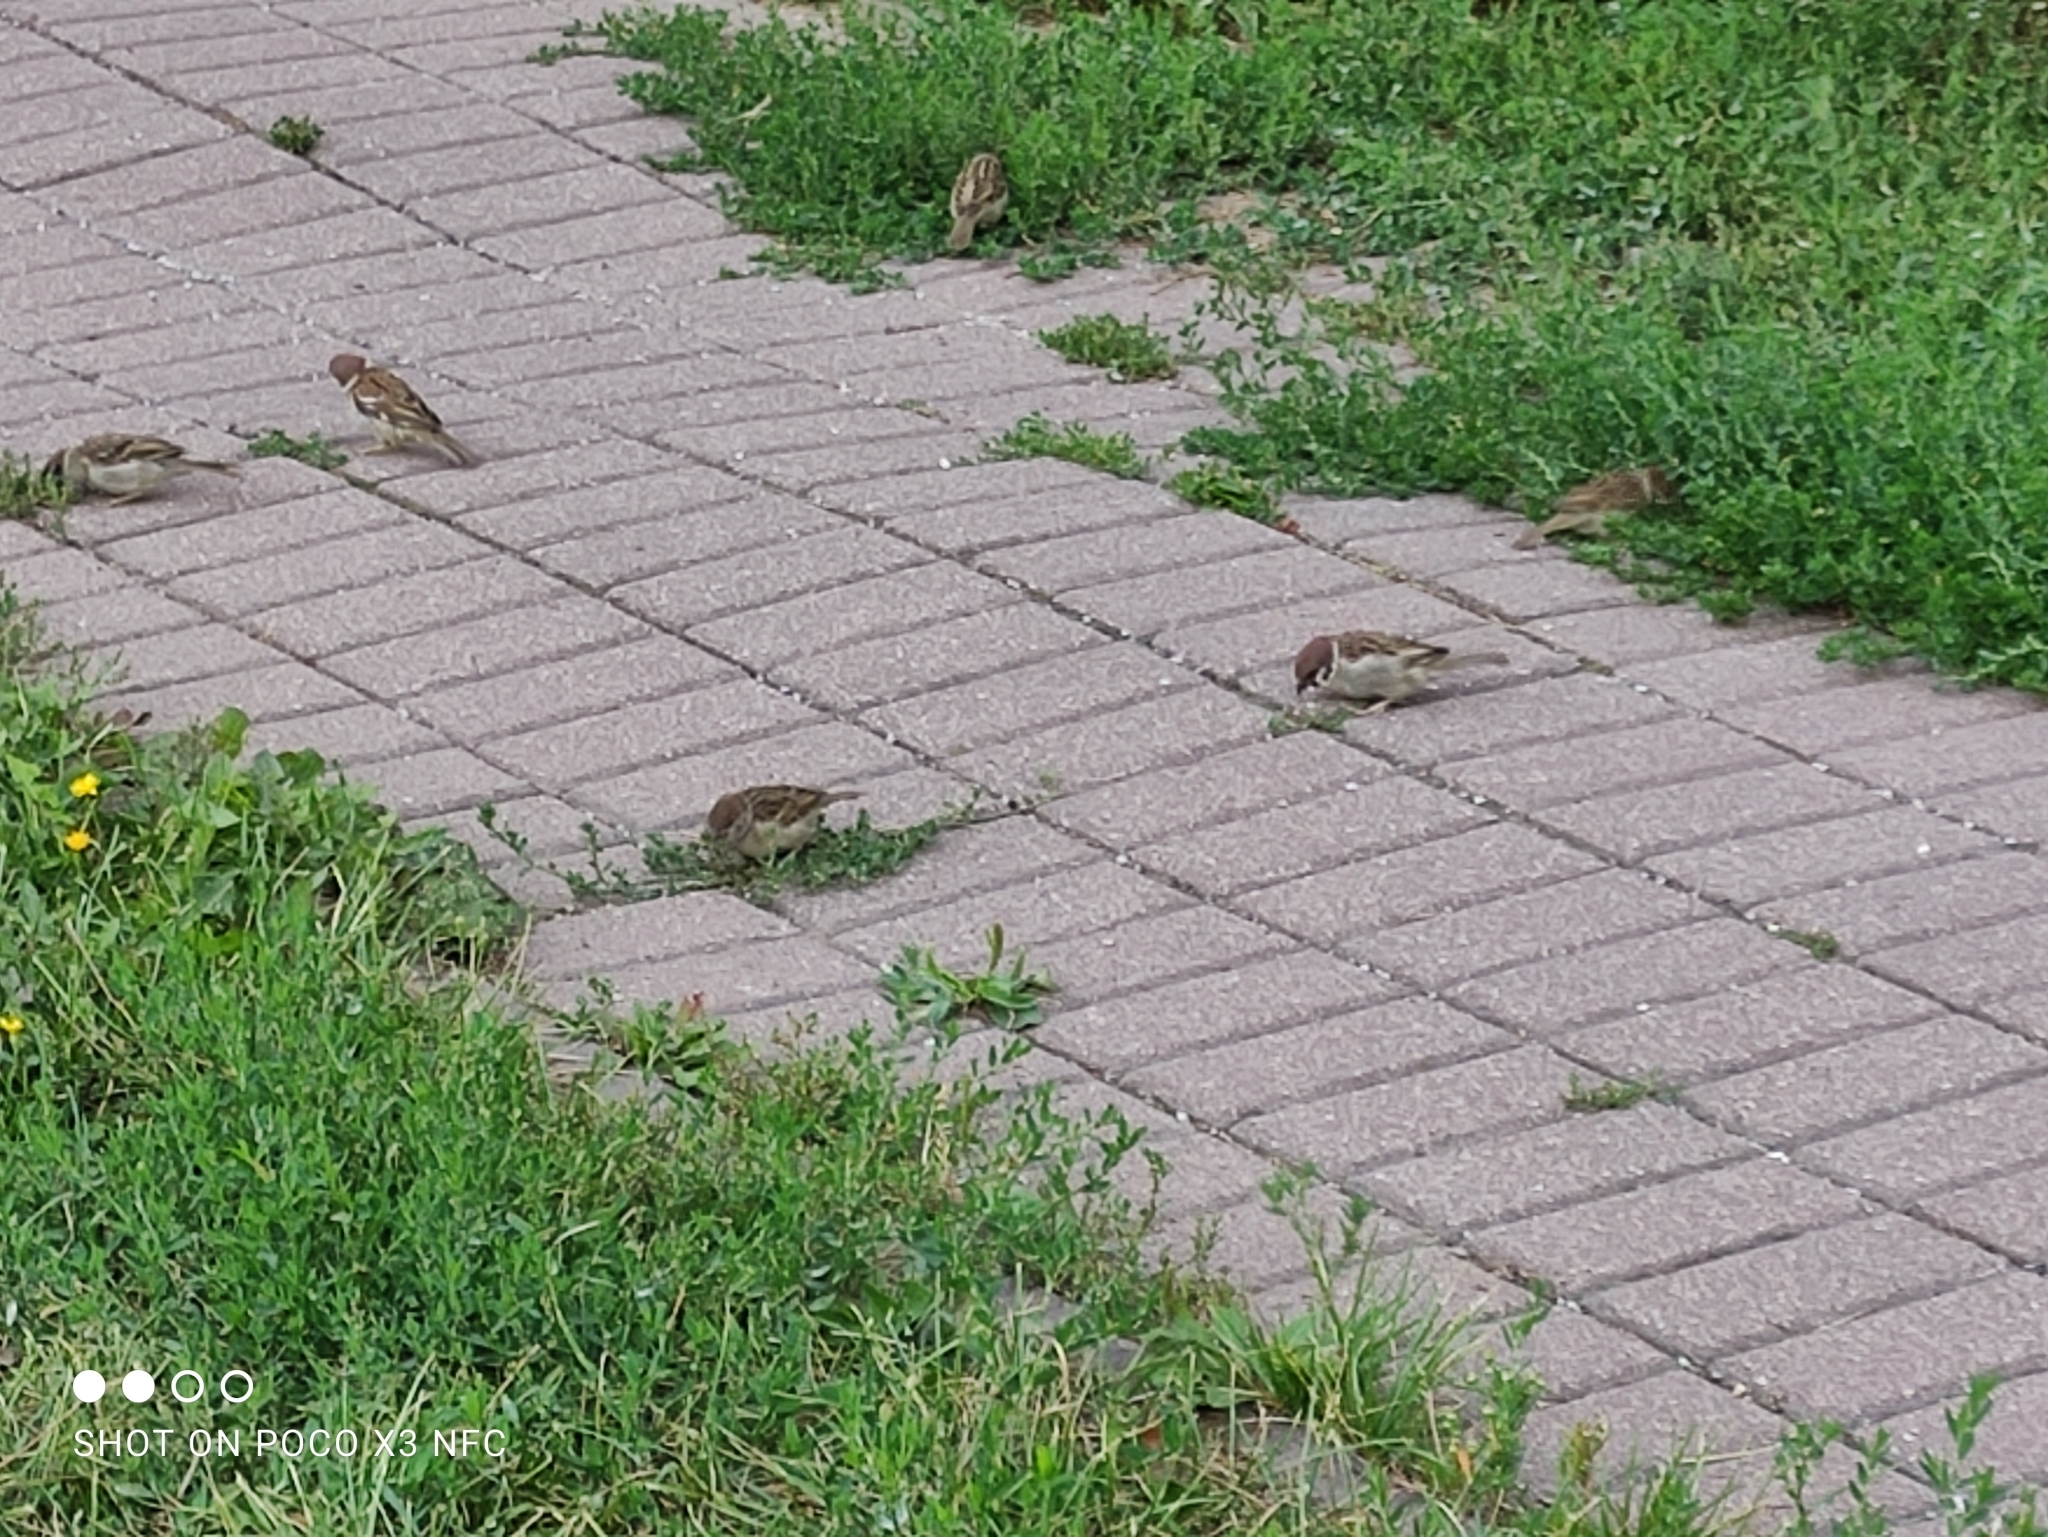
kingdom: Animalia
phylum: Chordata
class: Aves
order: Passeriformes
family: Passeridae
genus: Passer
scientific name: Passer montanus
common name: Eurasian tree sparrow
